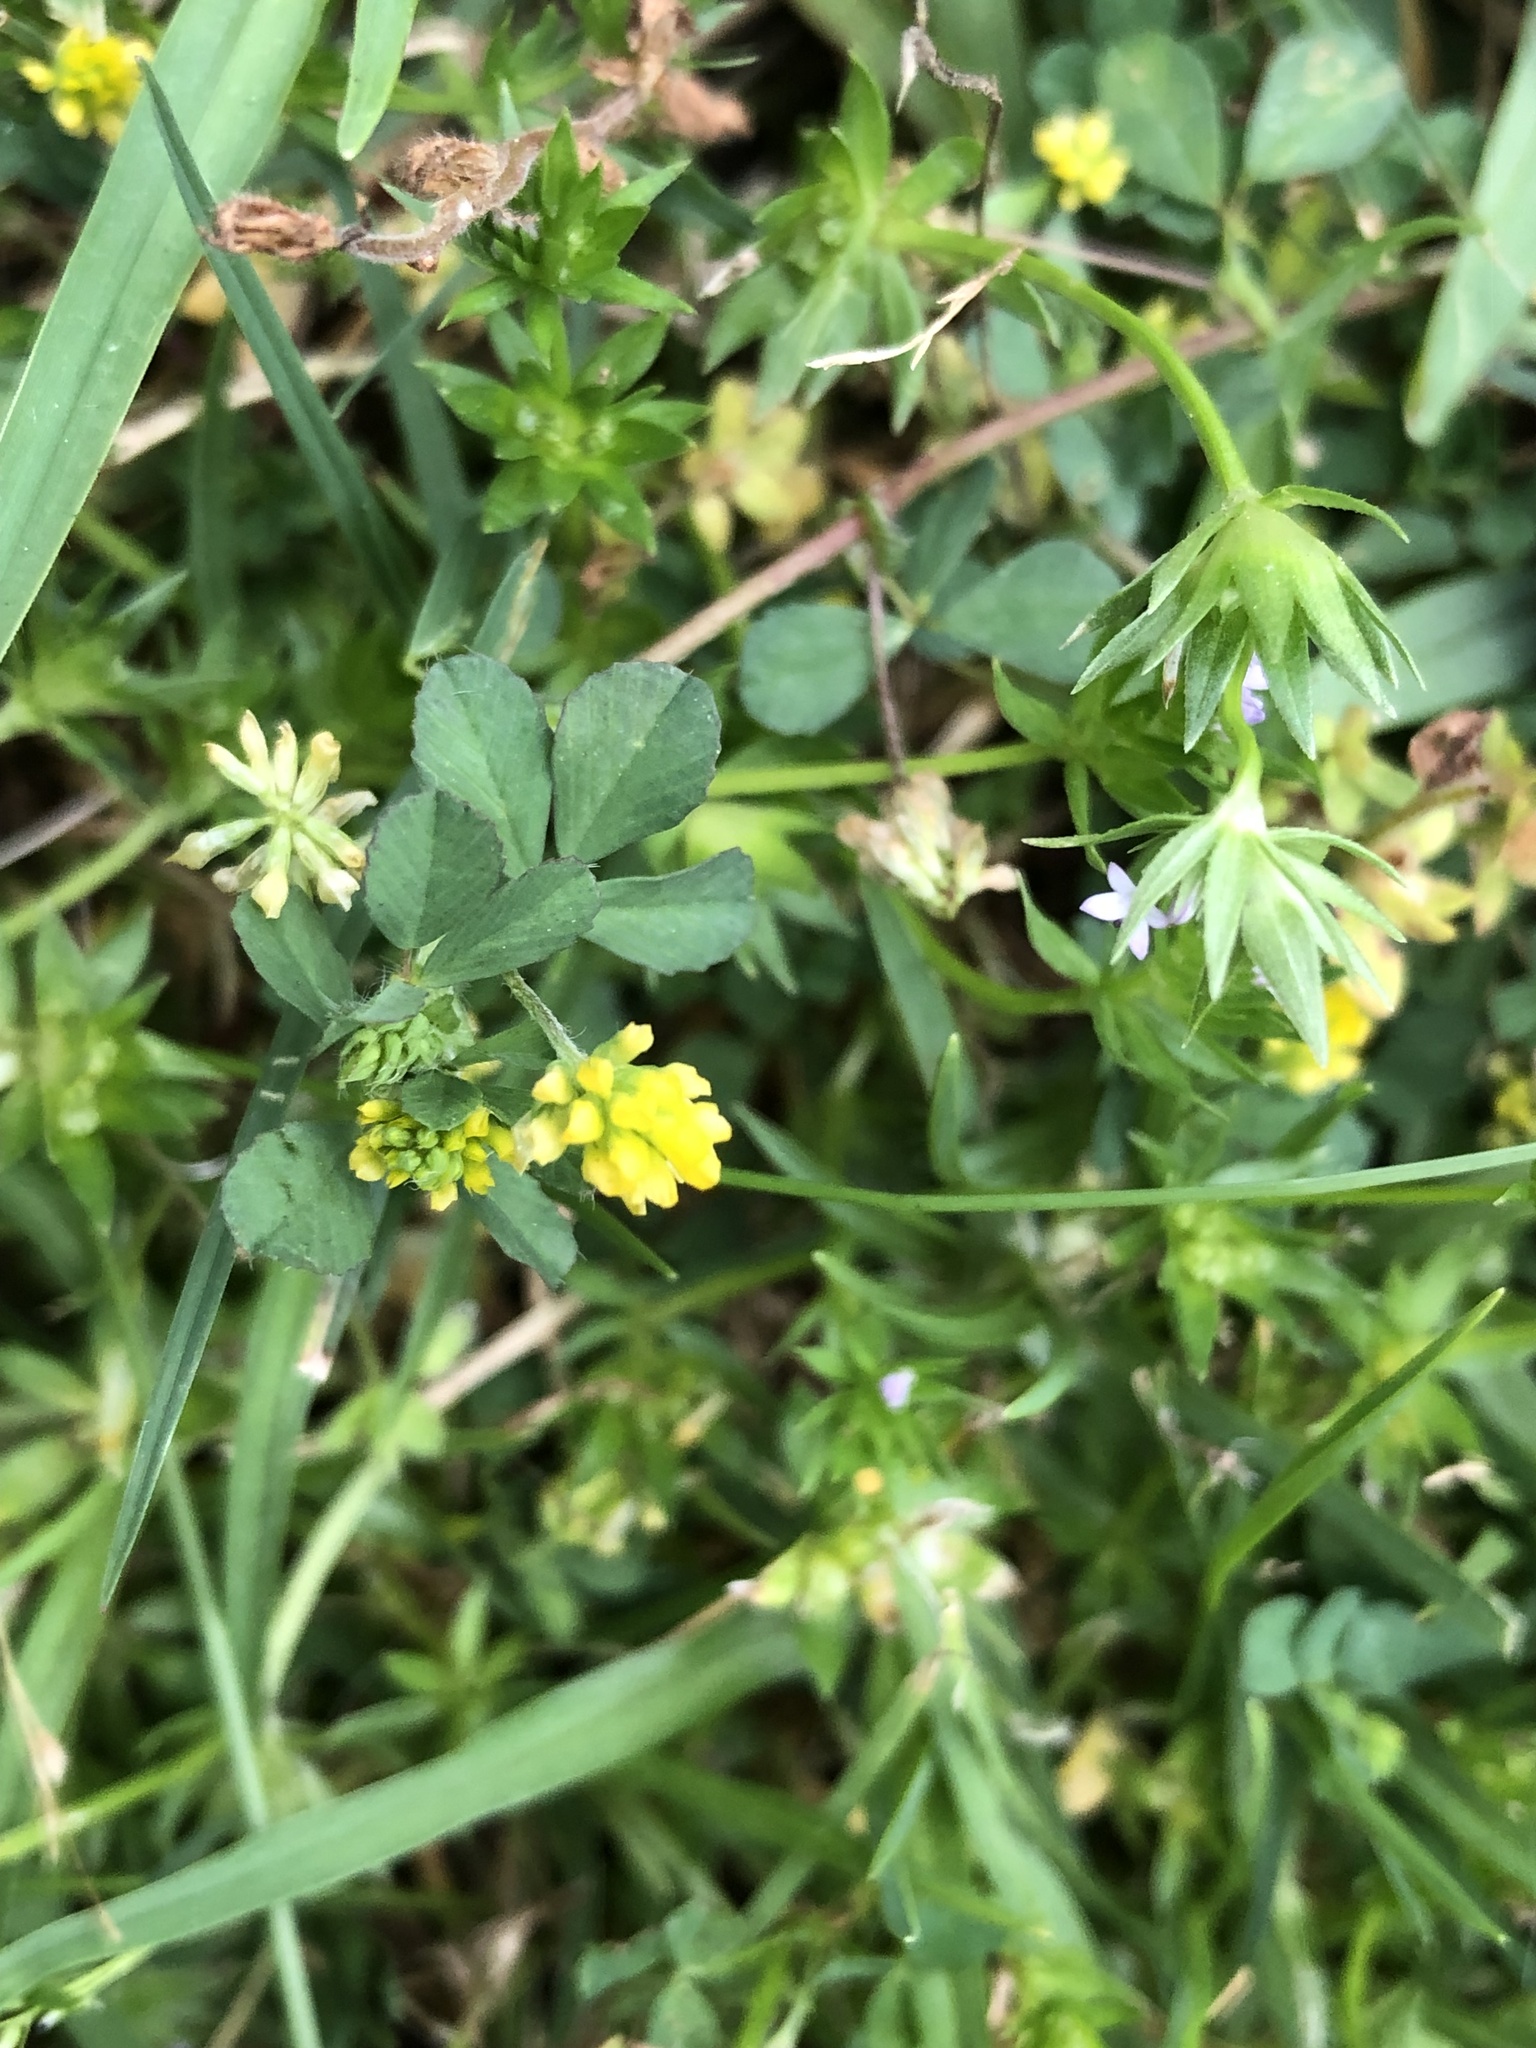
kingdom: Plantae
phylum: Tracheophyta
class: Magnoliopsida
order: Fabales
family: Fabaceae
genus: Trifolium
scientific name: Trifolium dubium
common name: Suckling clover
